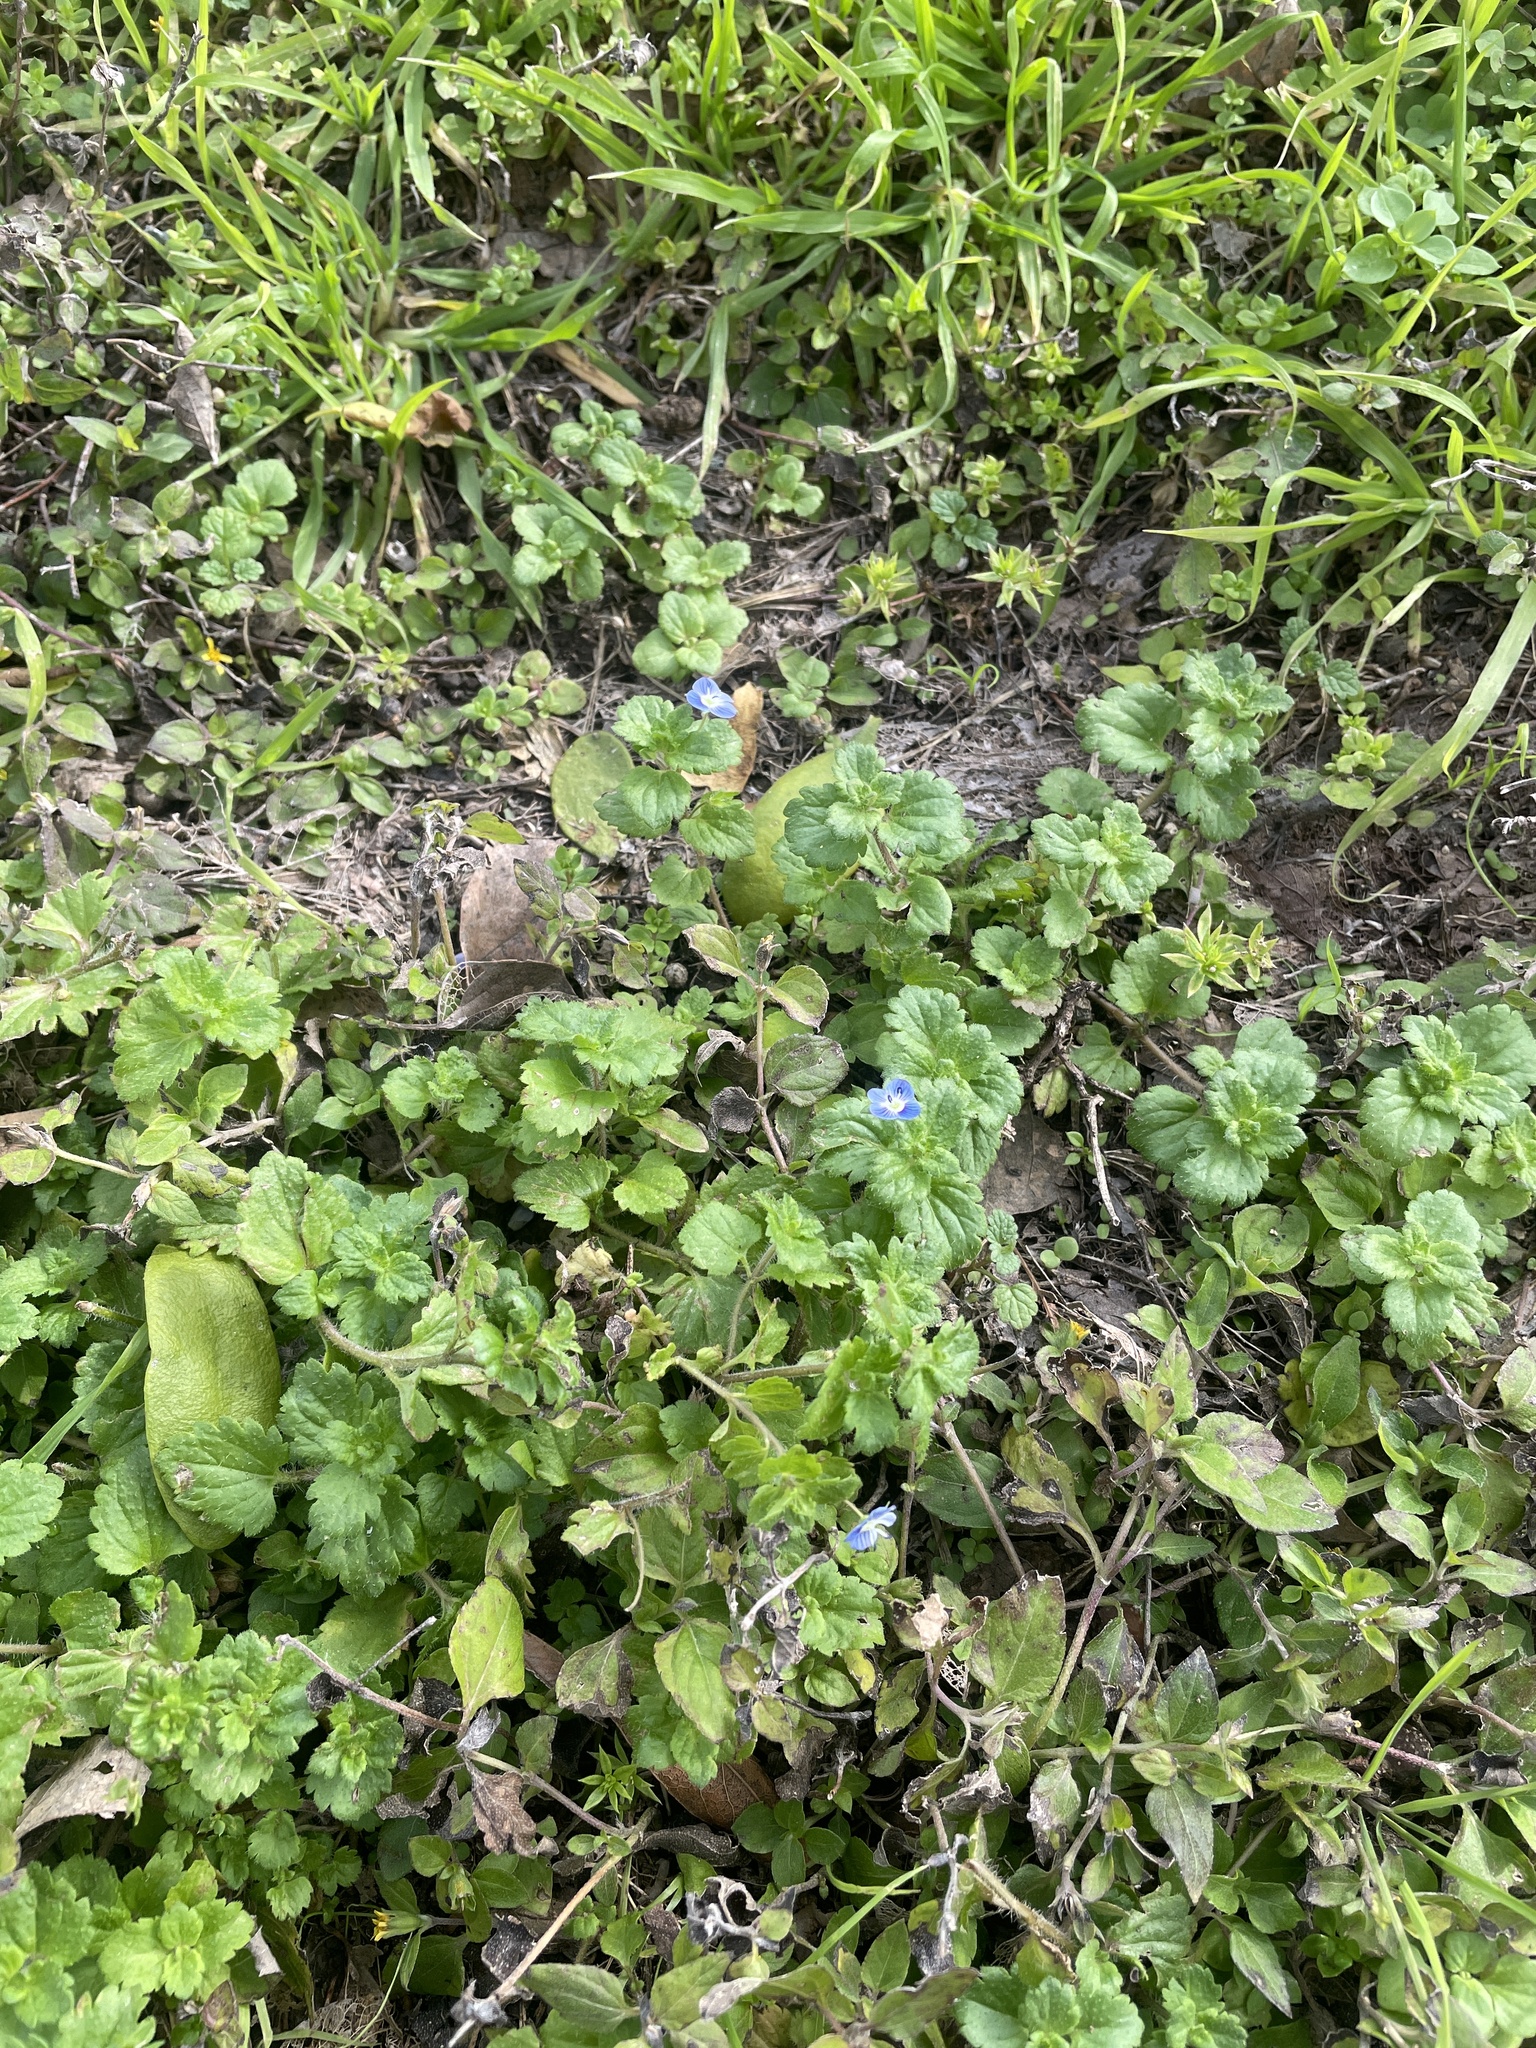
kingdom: Plantae
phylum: Tracheophyta
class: Magnoliopsida
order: Lamiales
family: Plantaginaceae
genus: Veronica
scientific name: Veronica persica
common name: Common field-speedwell
